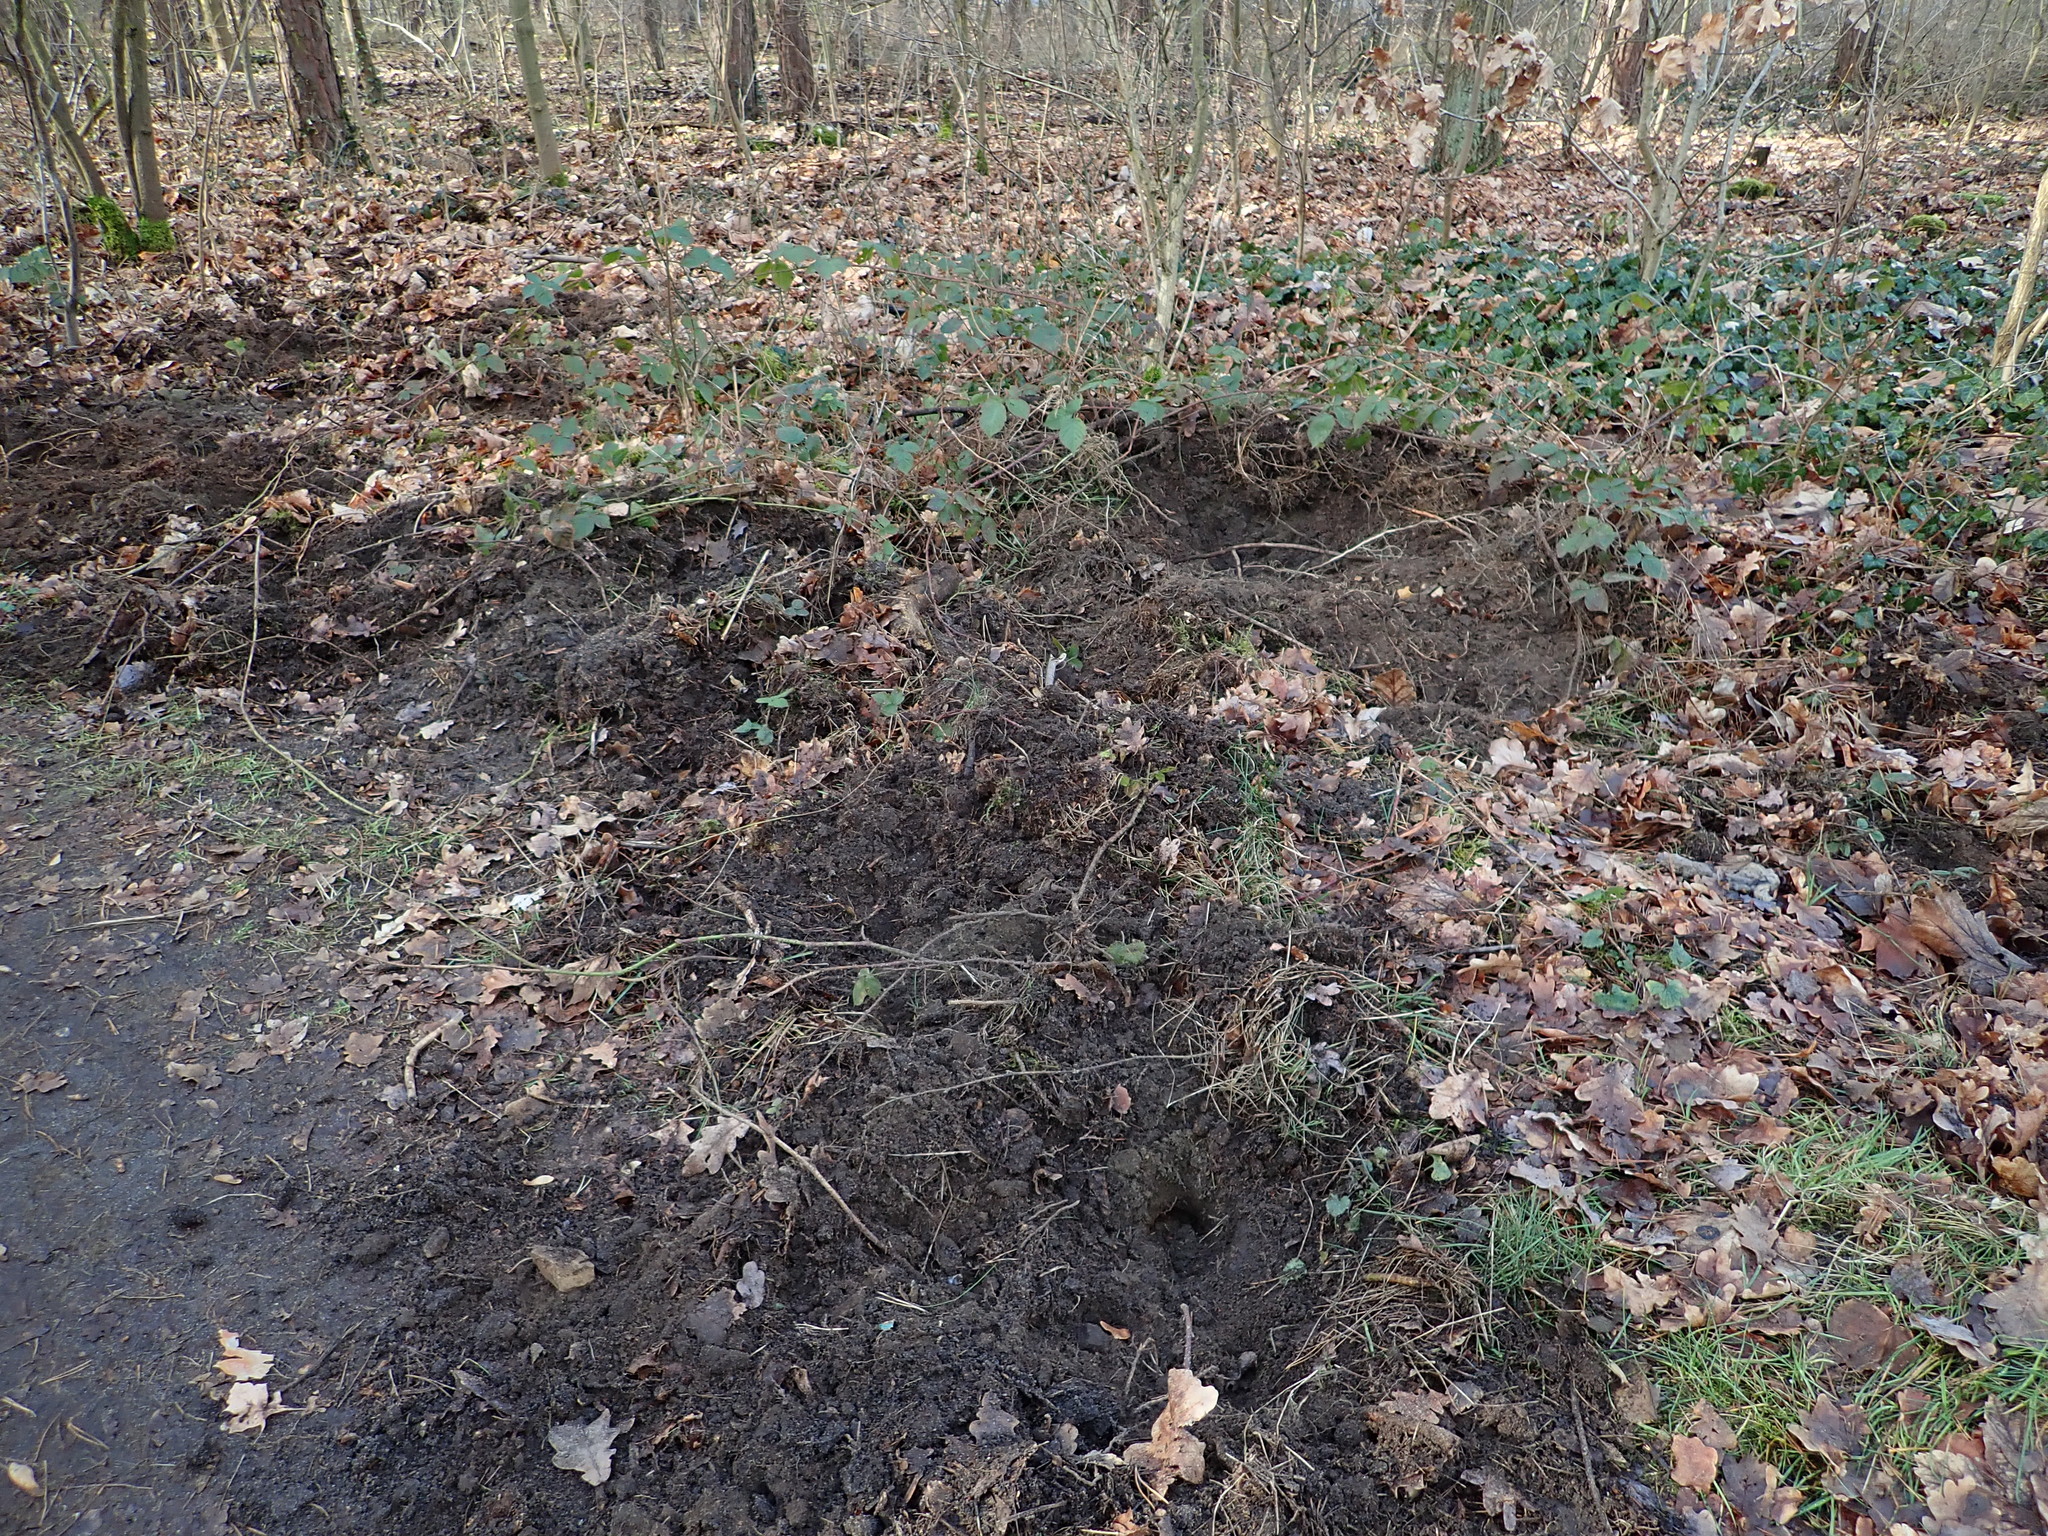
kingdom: Animalia
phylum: Chordata
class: Mammalia
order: Artiodactyla
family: Suidae
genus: Sus
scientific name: Sus scrofa
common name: Wild boar
